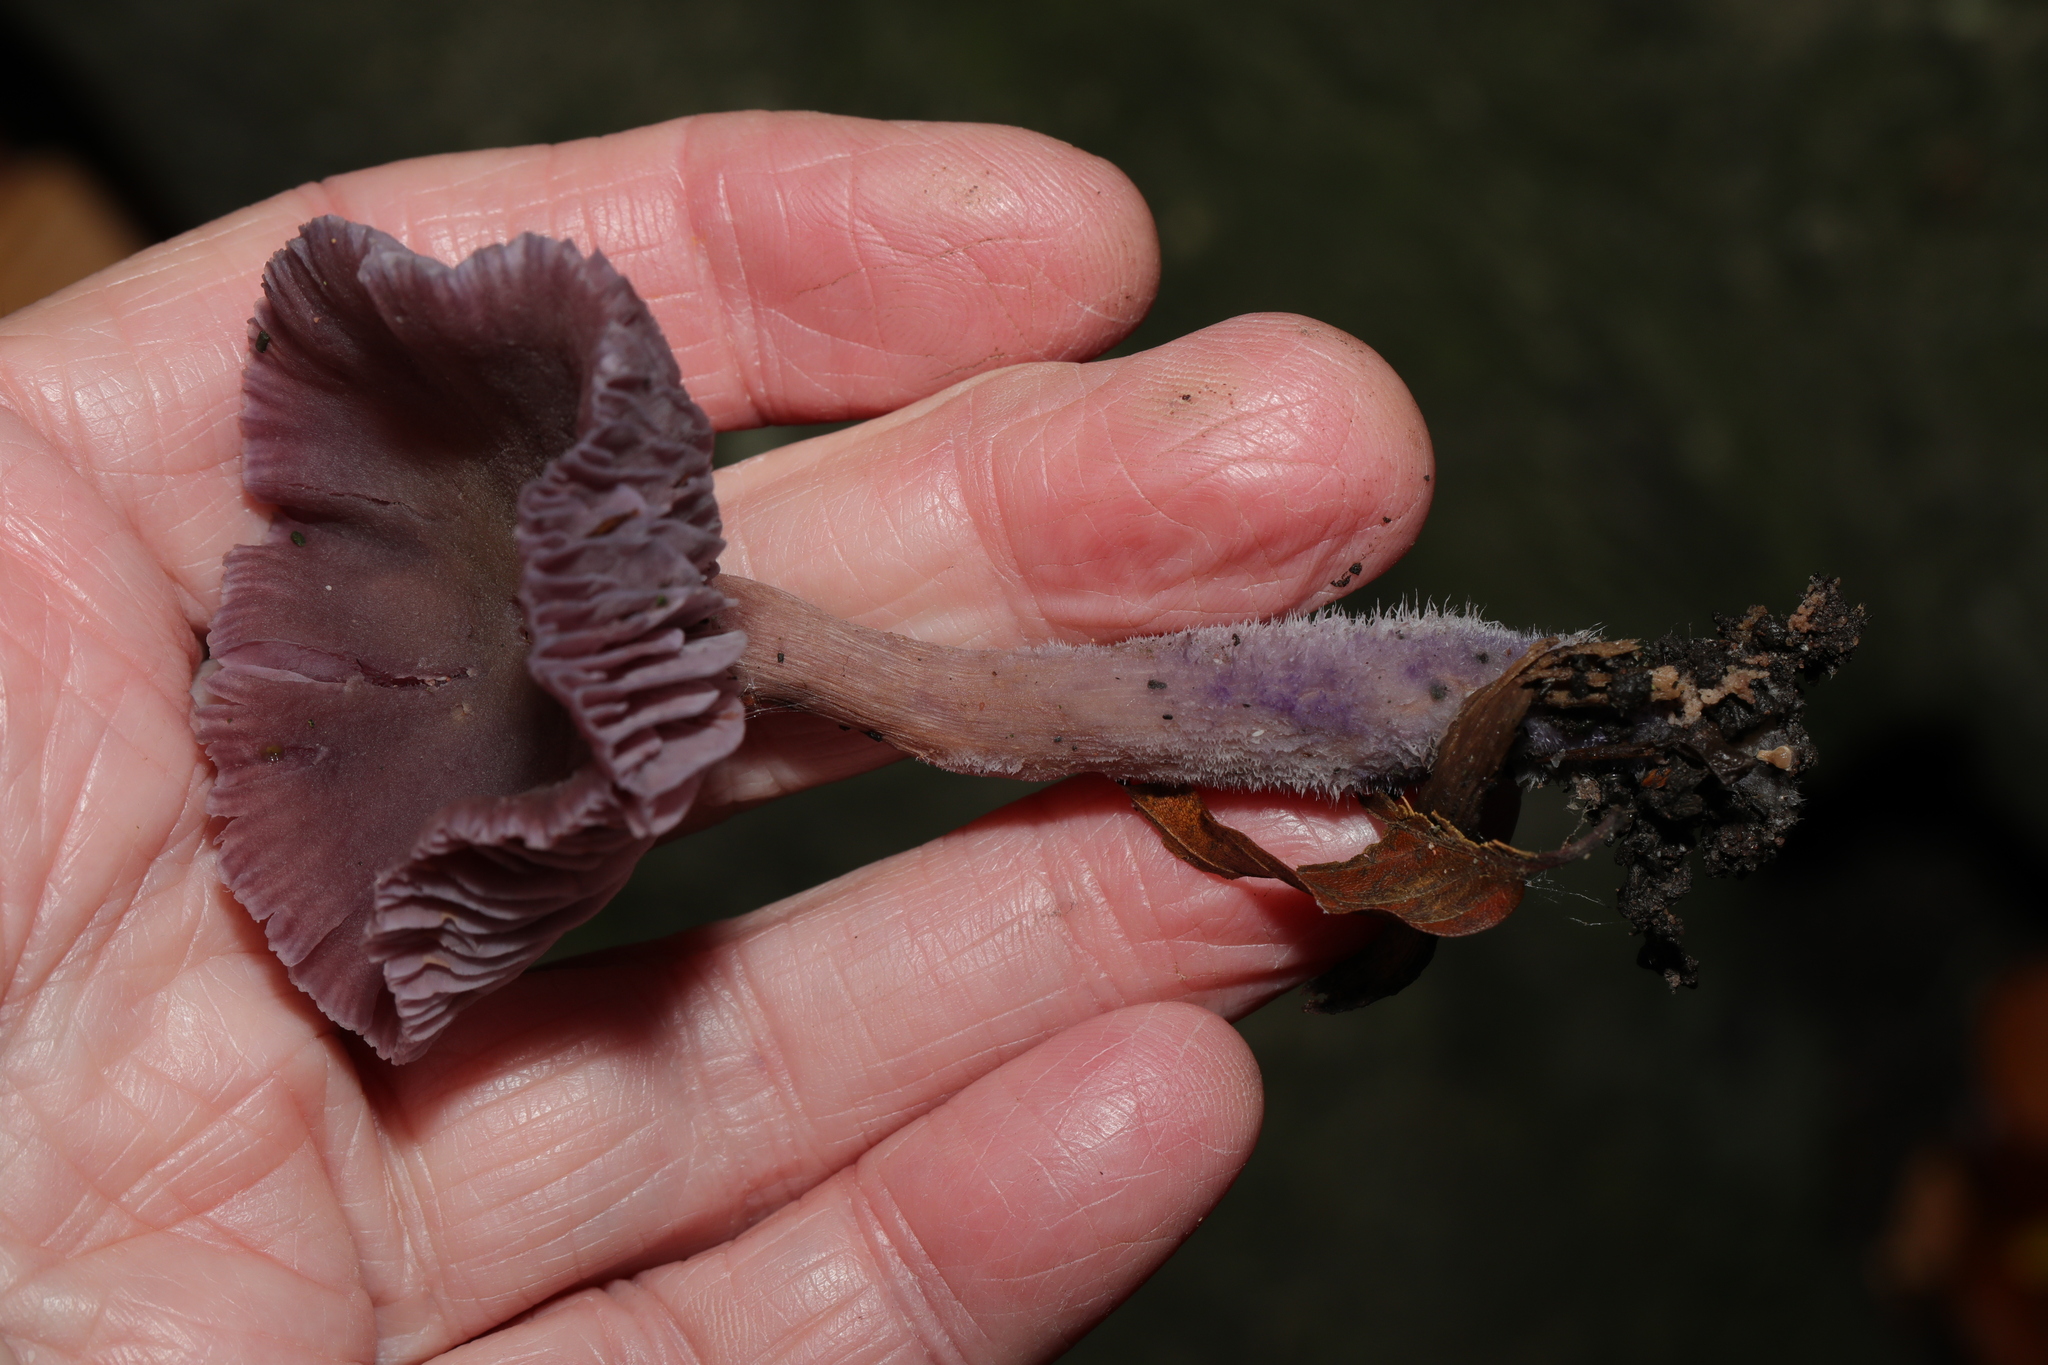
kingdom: Fungi
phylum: Basidiomycota
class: Agaricomycetes
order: Agaricales
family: Hydnangiaceae
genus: Laccaria
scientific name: Laccaria amethystina
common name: Amethyst deceiver
